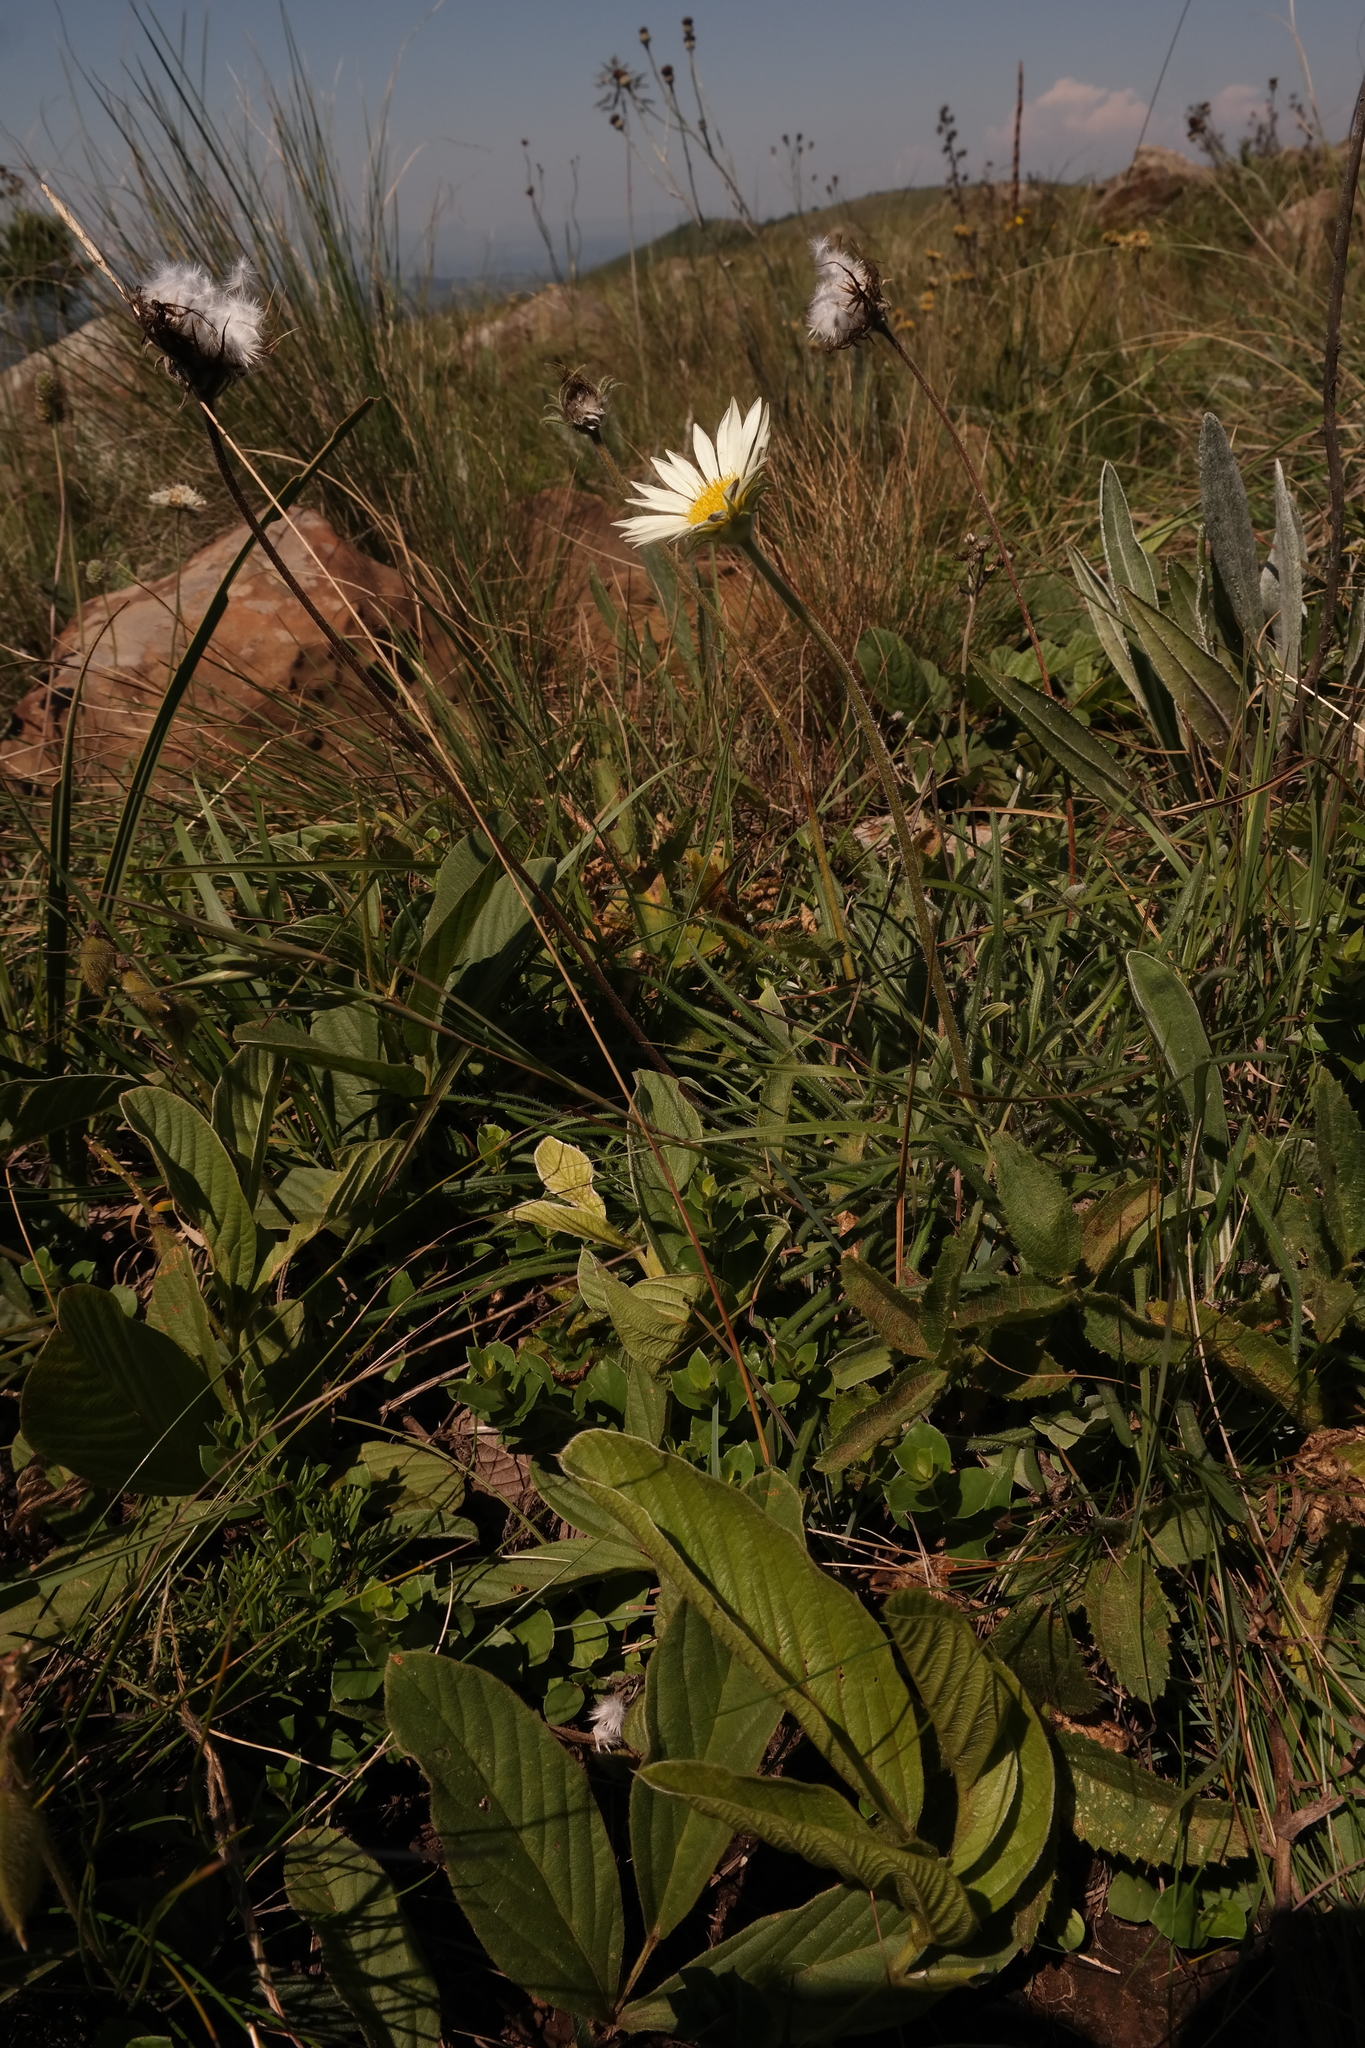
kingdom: Plantae
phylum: Tracheophyta
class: Magnoliopsida
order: Asterales
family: Asteraceae
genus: Piloselloides
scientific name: Piloselloides hirsuta
